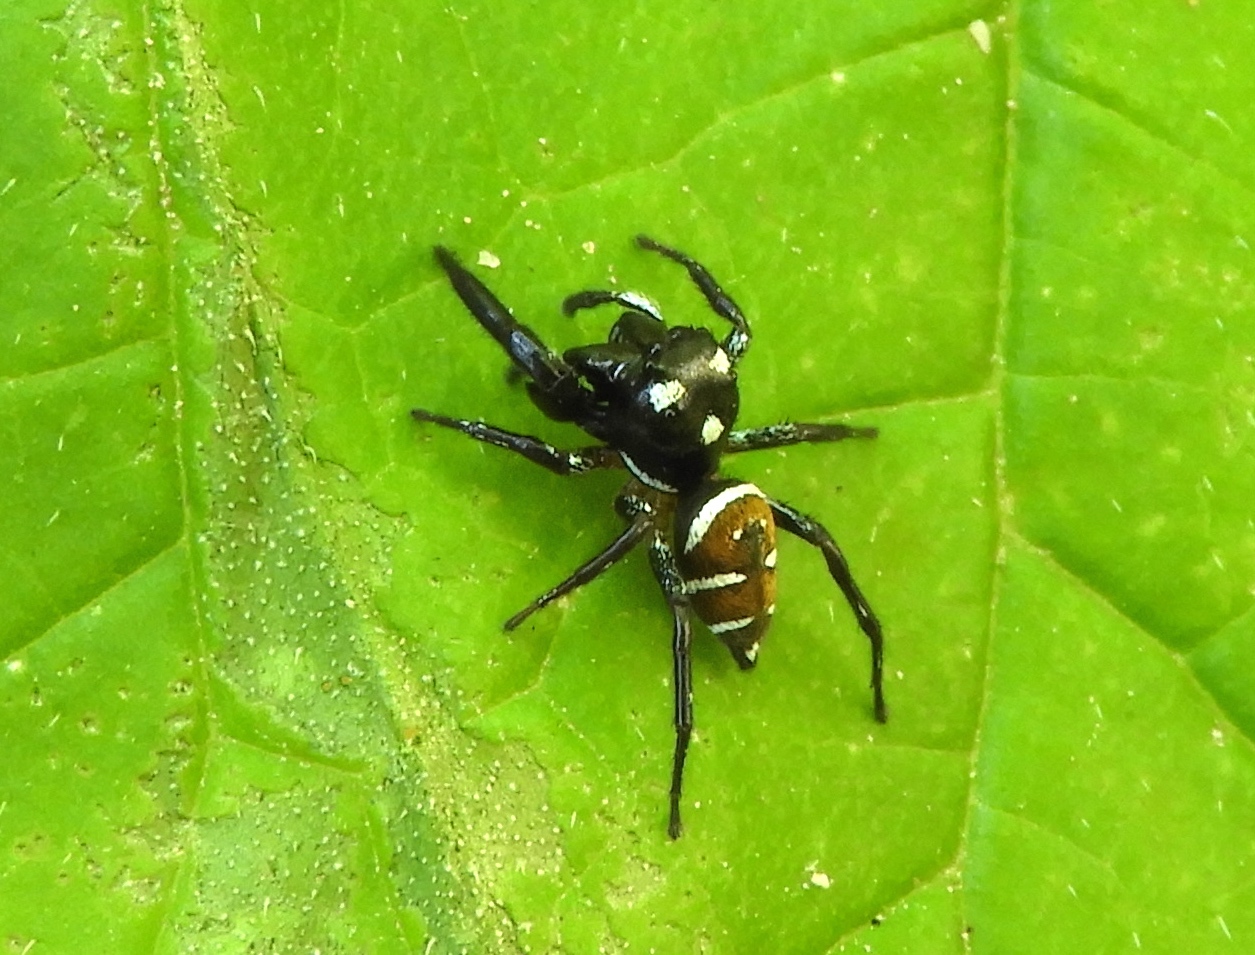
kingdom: Animalia
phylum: Arthropoda
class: Arachnida
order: Araneae
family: Salticidae
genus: Sassacus
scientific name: Sassacus
